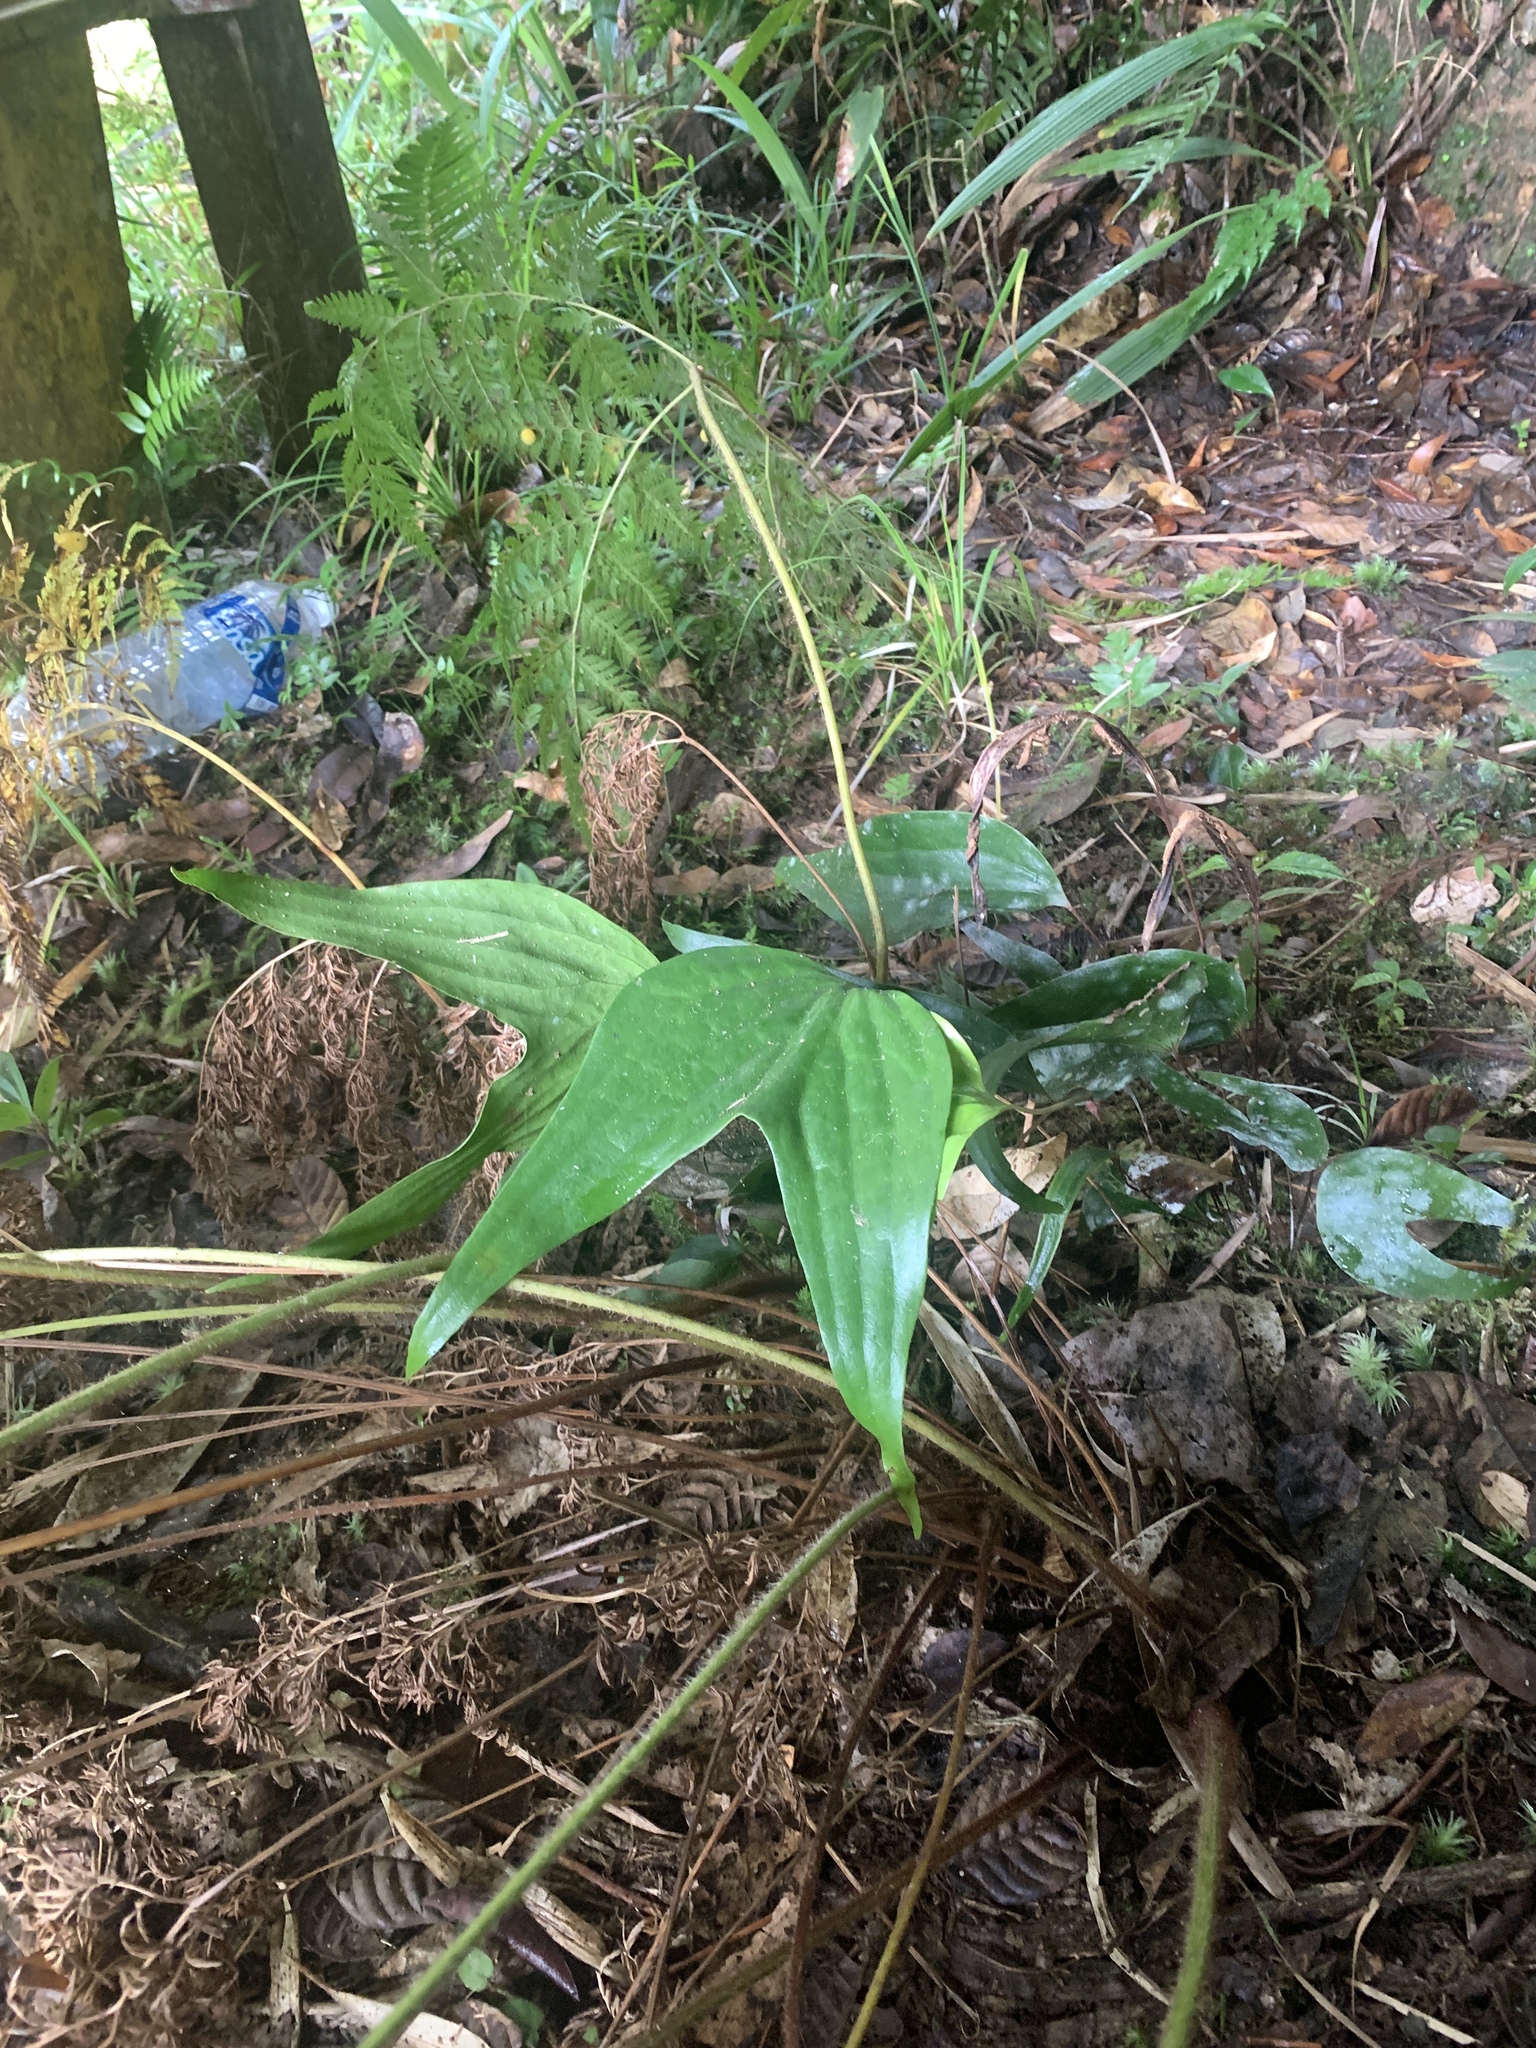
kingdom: Plantae
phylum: Tracheophyta
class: Polypodiopsida
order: Gleicheniales
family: Dipteridaceae
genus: Cheiropleuria
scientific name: Cheiropleuria bicuspis
